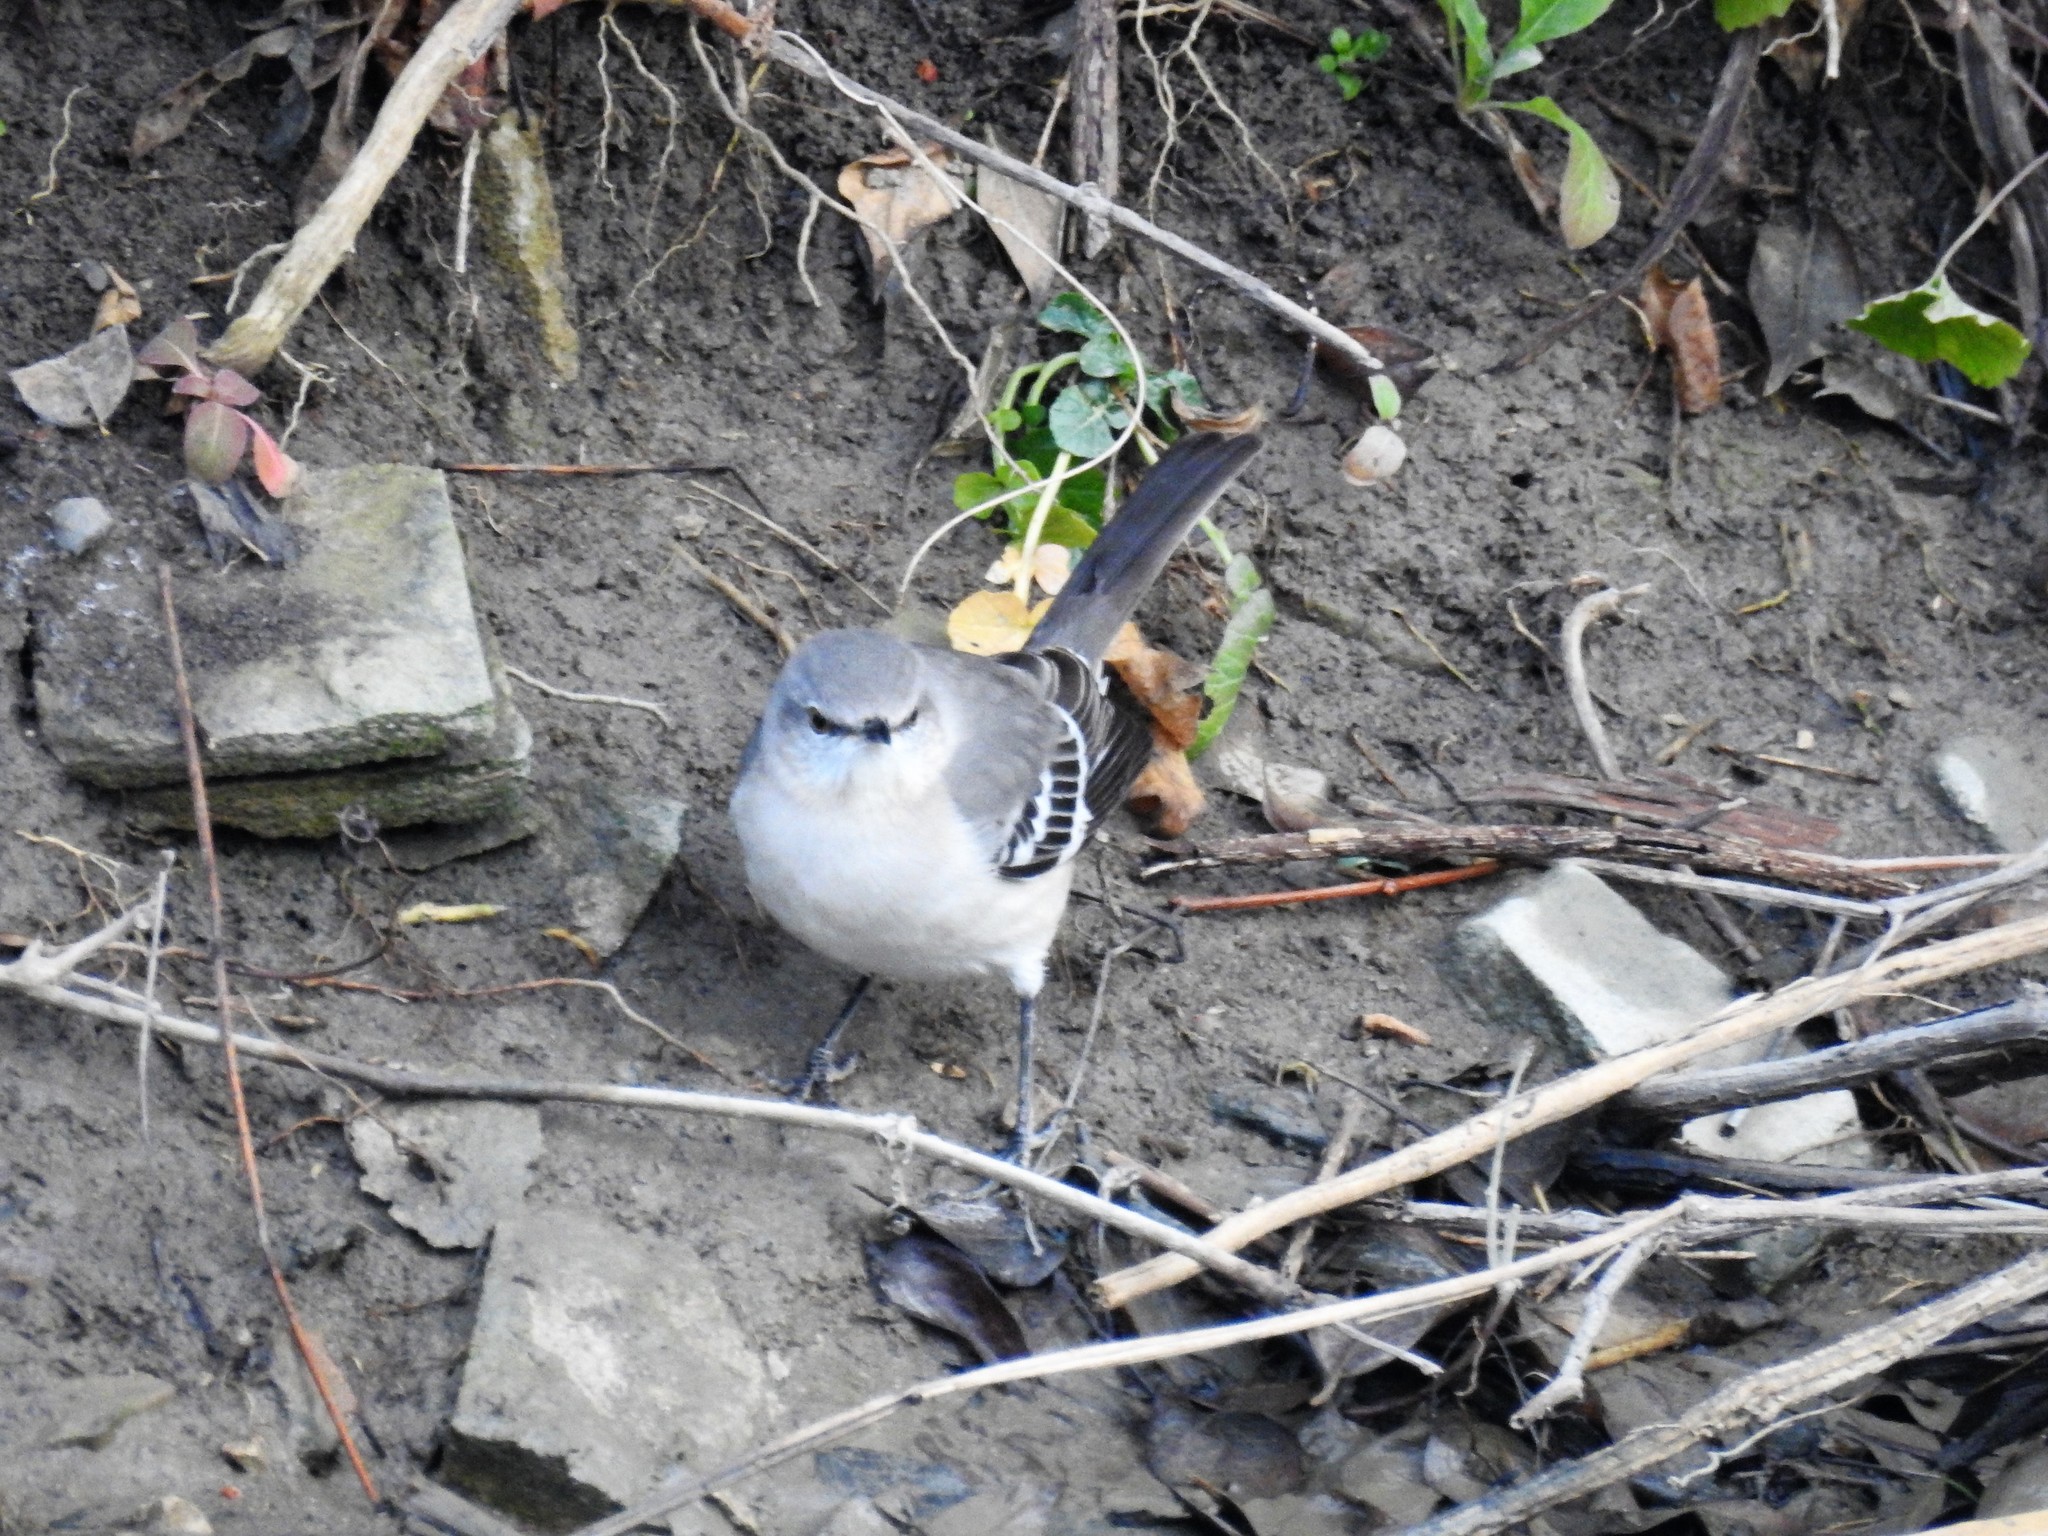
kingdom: Animalia
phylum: Chordata
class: Aves
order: Passeriformes
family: Mimidae
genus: Mimus
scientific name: Mimus polyglottos
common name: Northern mockingbird
